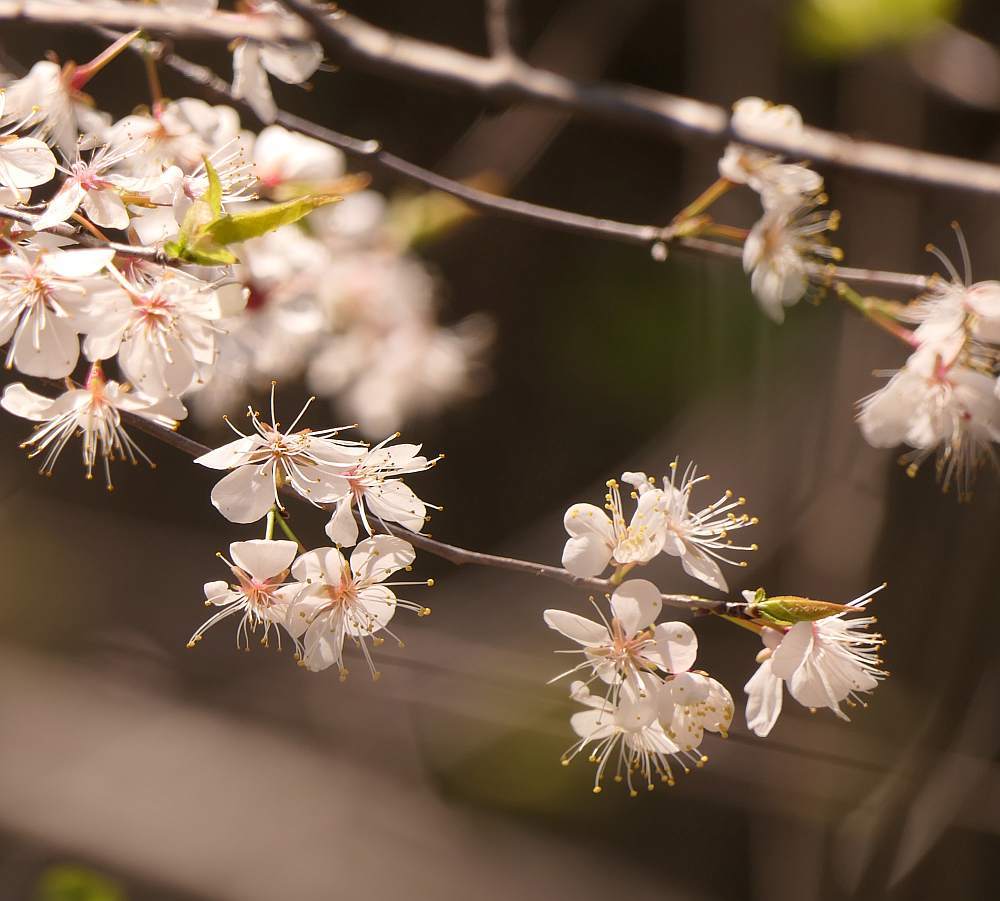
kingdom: Plantae
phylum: Tracheophyta
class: Magnoliopsida
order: Rosales
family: Rosaceae
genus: Prunus
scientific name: Prunus nigra
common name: Black plum
